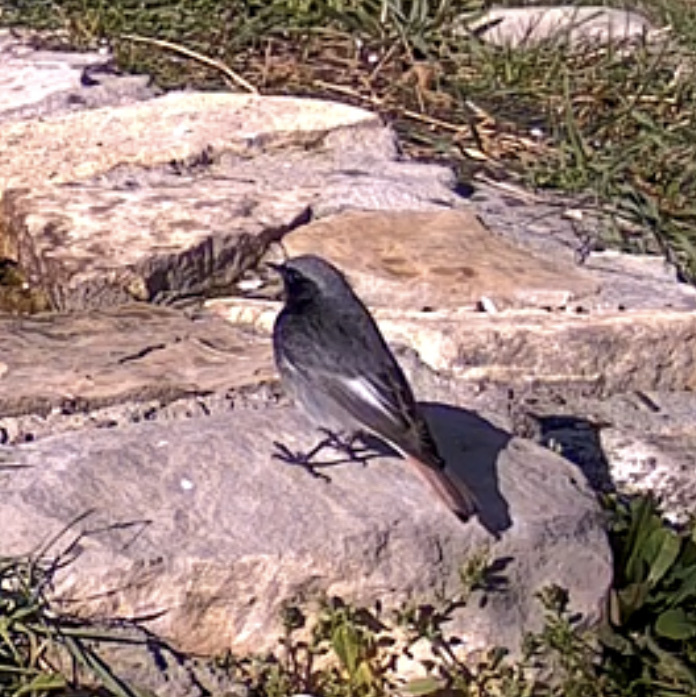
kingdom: Animalia
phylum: Chordata
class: Aves
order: Passeriformes
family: Muscicapidae
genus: Phoenicurus
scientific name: Phoenicurus ochruros
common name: Black redstart
